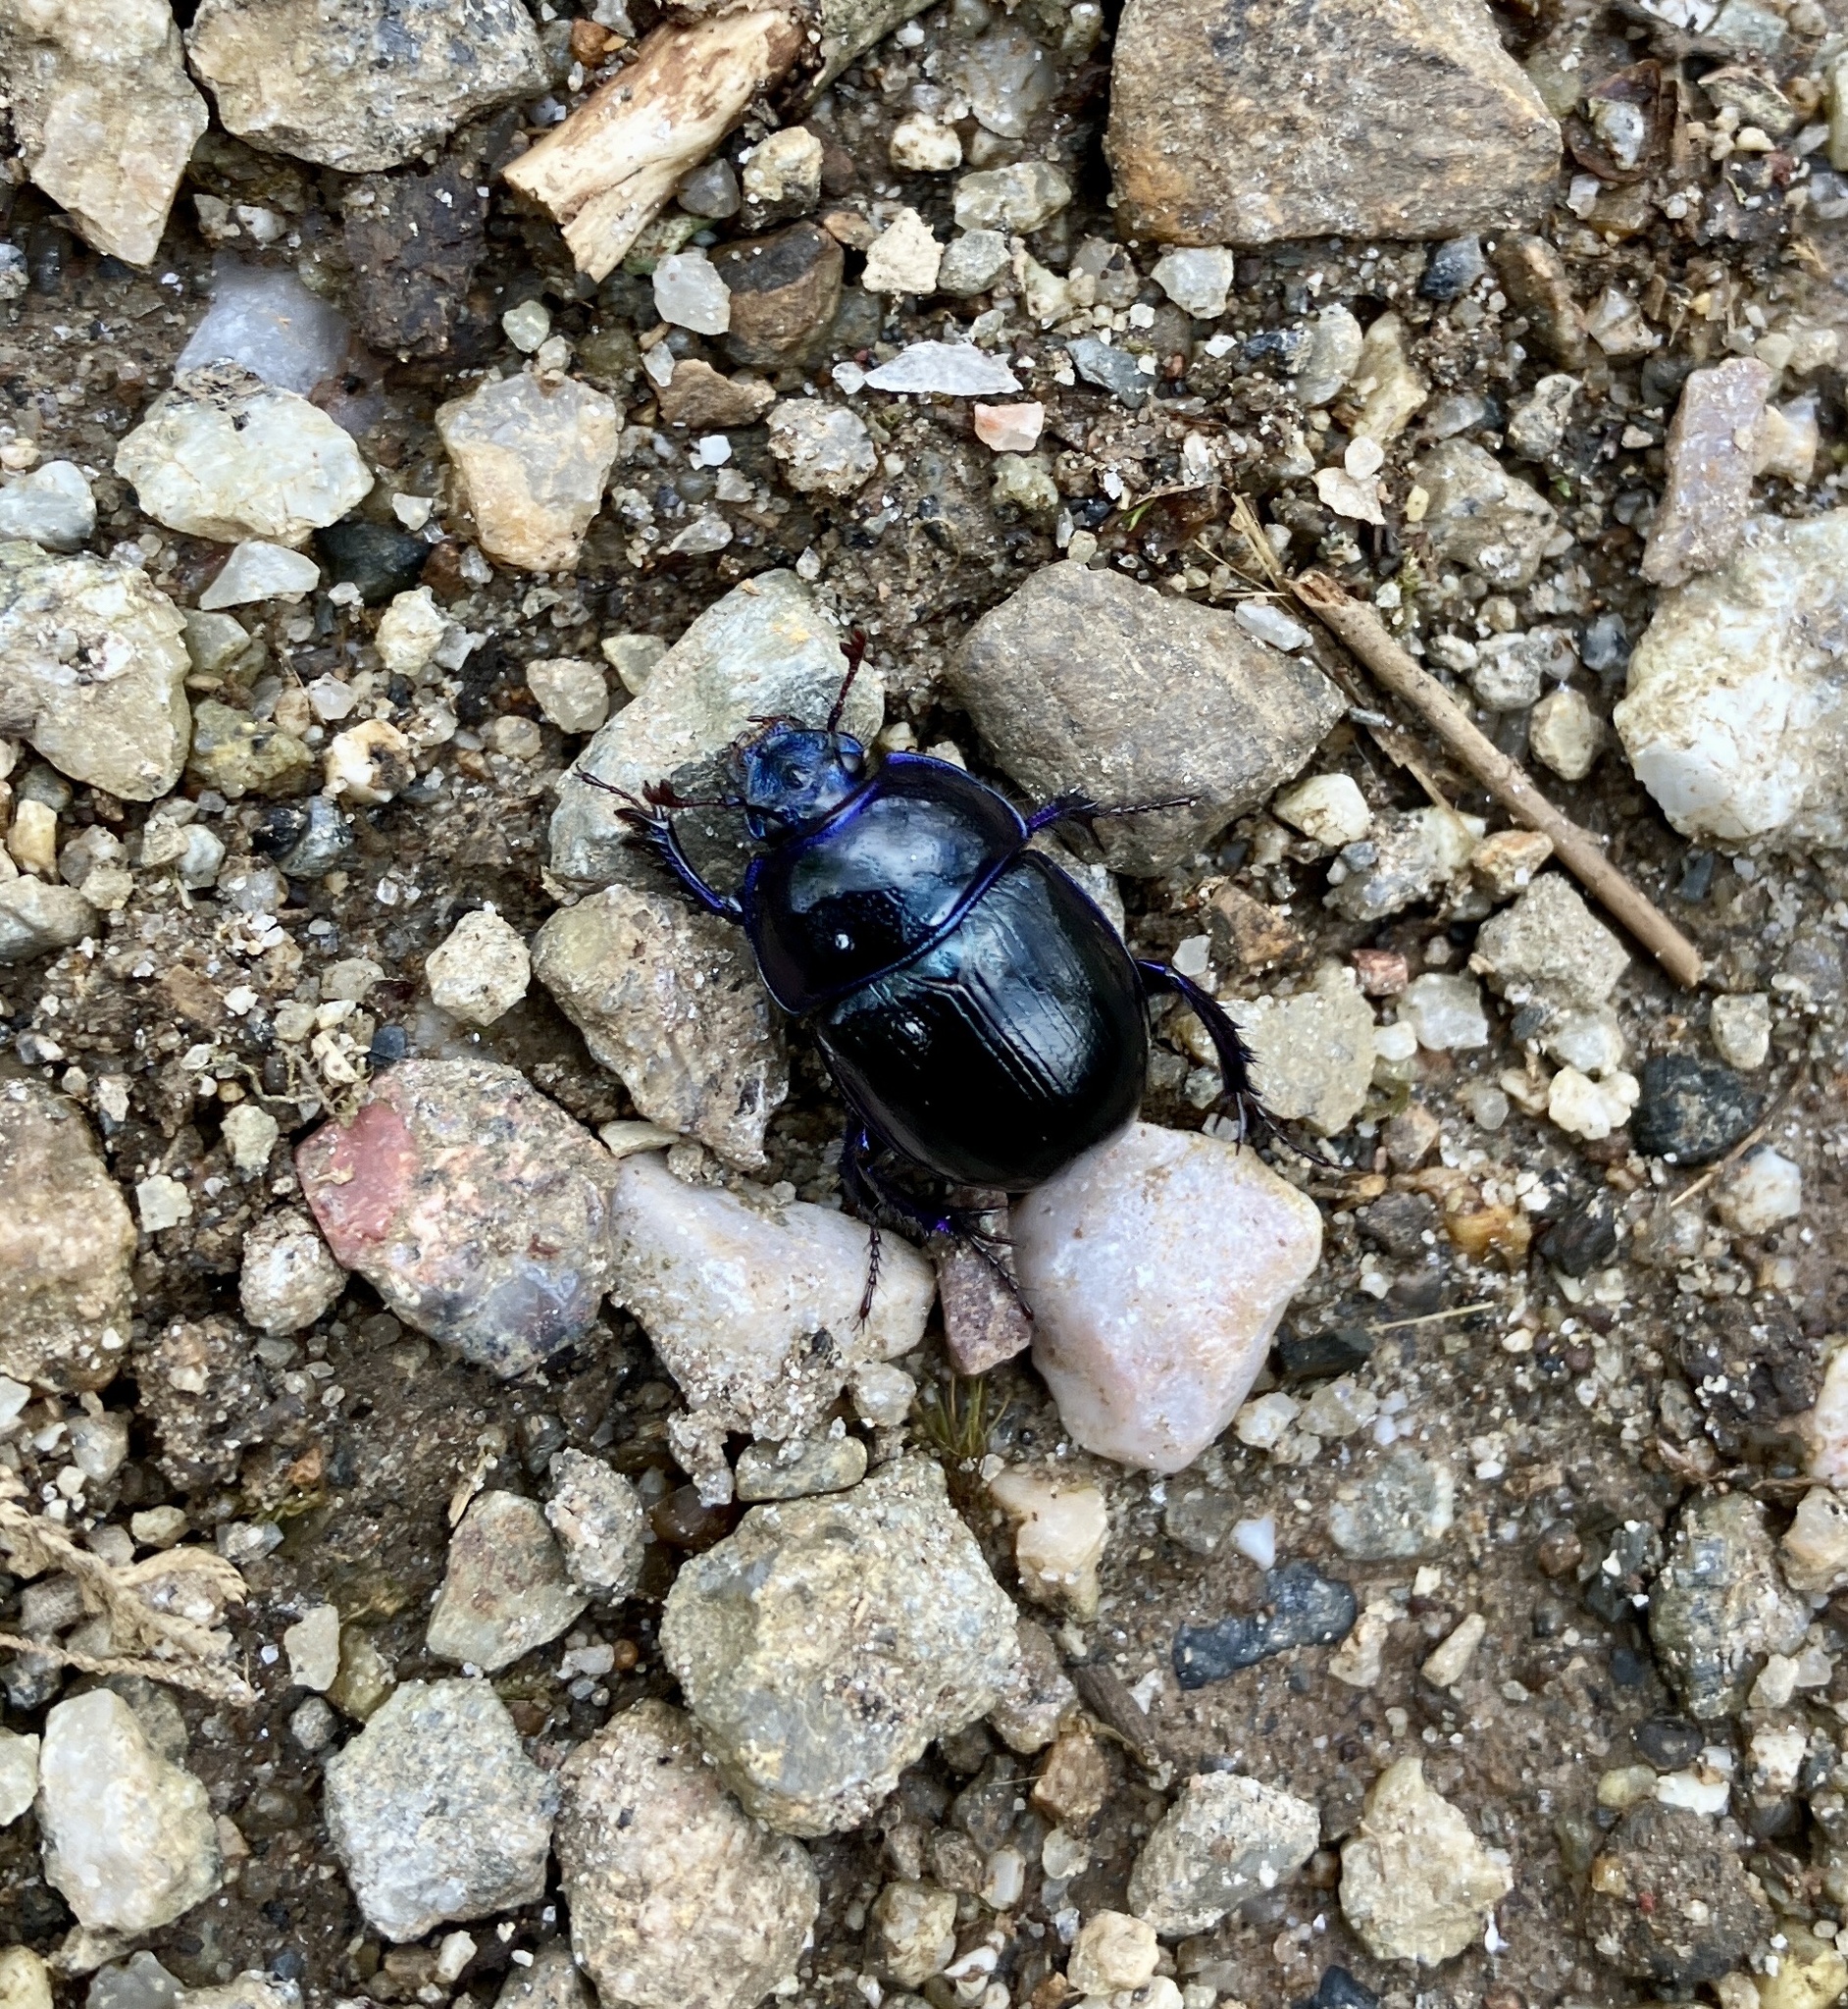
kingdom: Animalia
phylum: Arthropoda
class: Insecta
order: Coleoptera
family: Geotrupidae
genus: Anoplotrupes
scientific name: Anoplotrupes stercorosus
